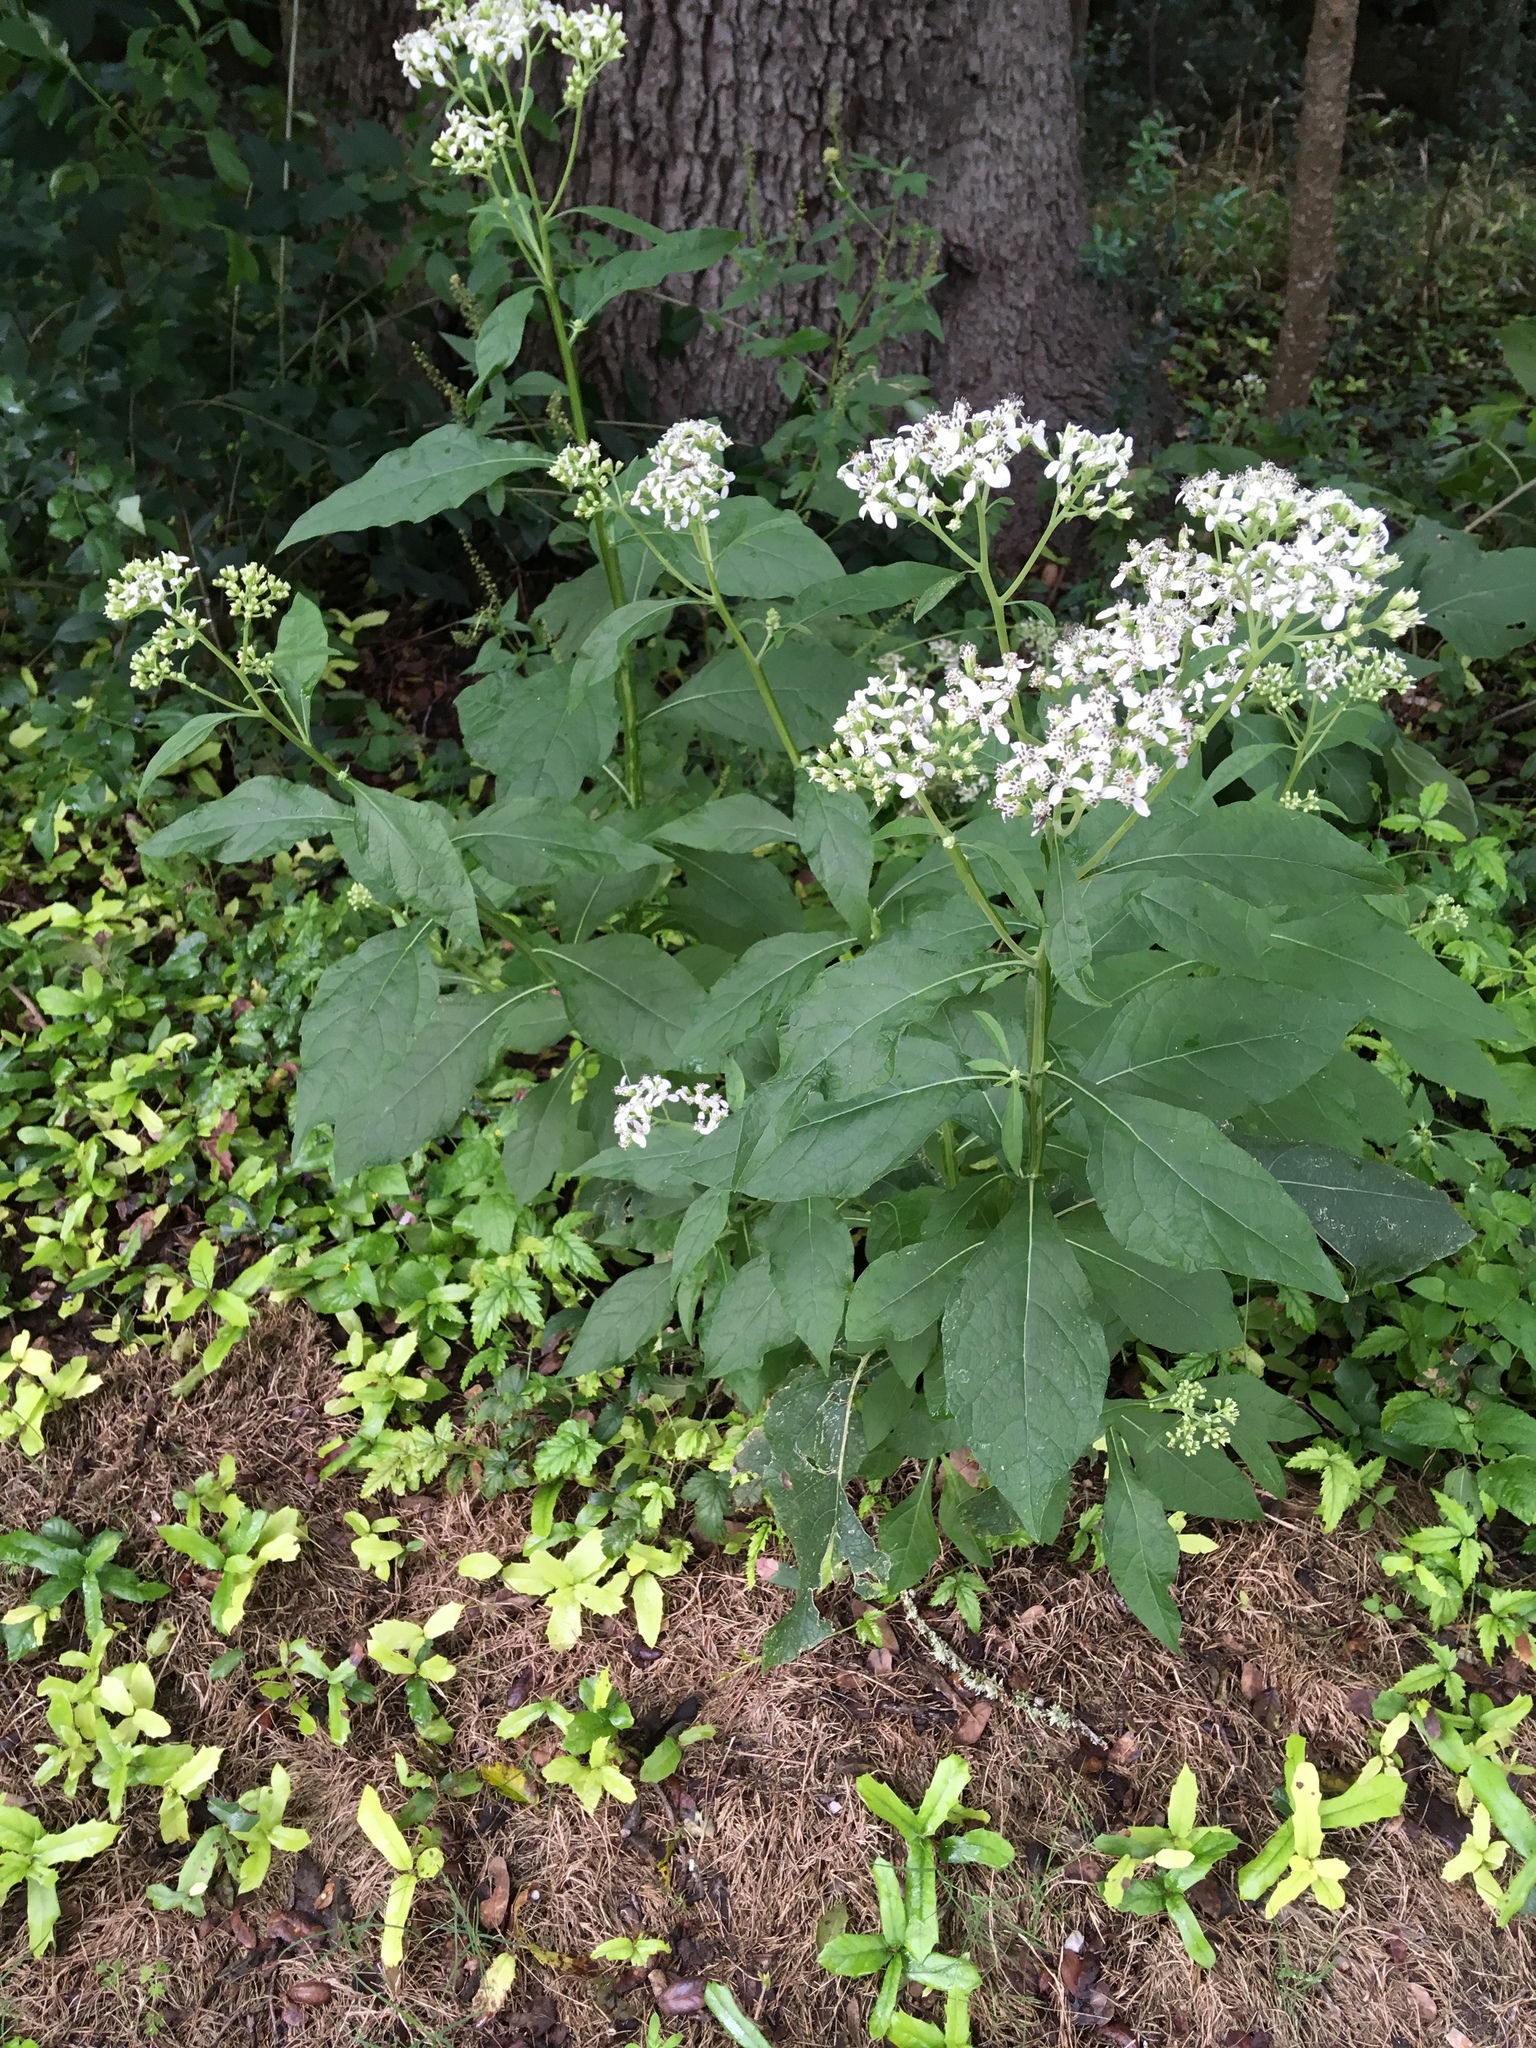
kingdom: Plantae
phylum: Tracheophyta
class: Magnoliopsida
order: Asterales
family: Asteraceae
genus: Verbesina
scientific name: Verbesina virginica
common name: Frostweed
